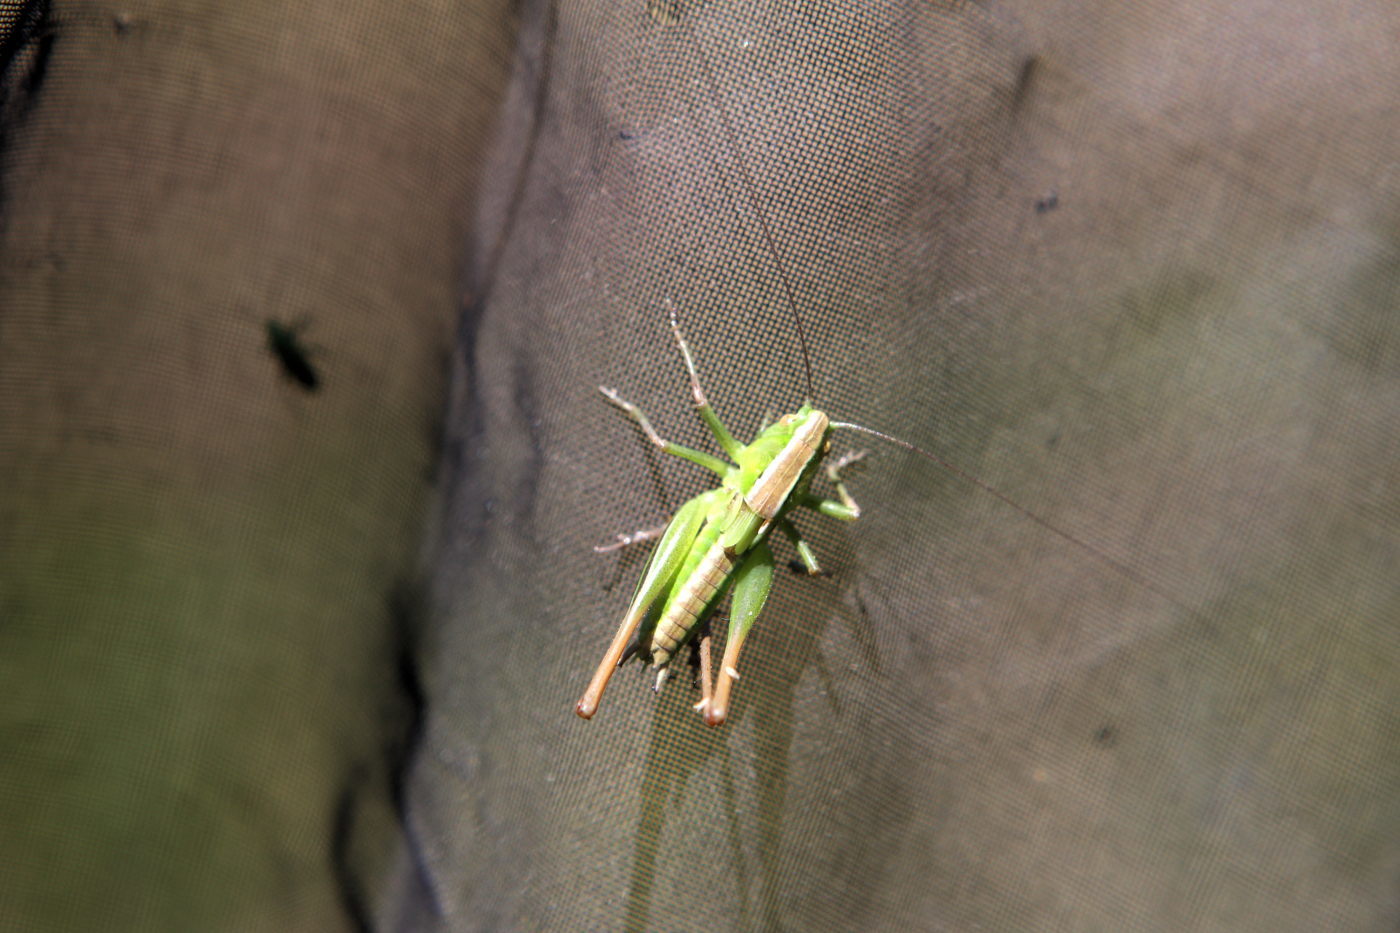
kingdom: Animalia
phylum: Arthropoda
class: Insecta
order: Orthoptera
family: Tettigoniidae
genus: Bicolorana
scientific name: Bicolorana bicolor
